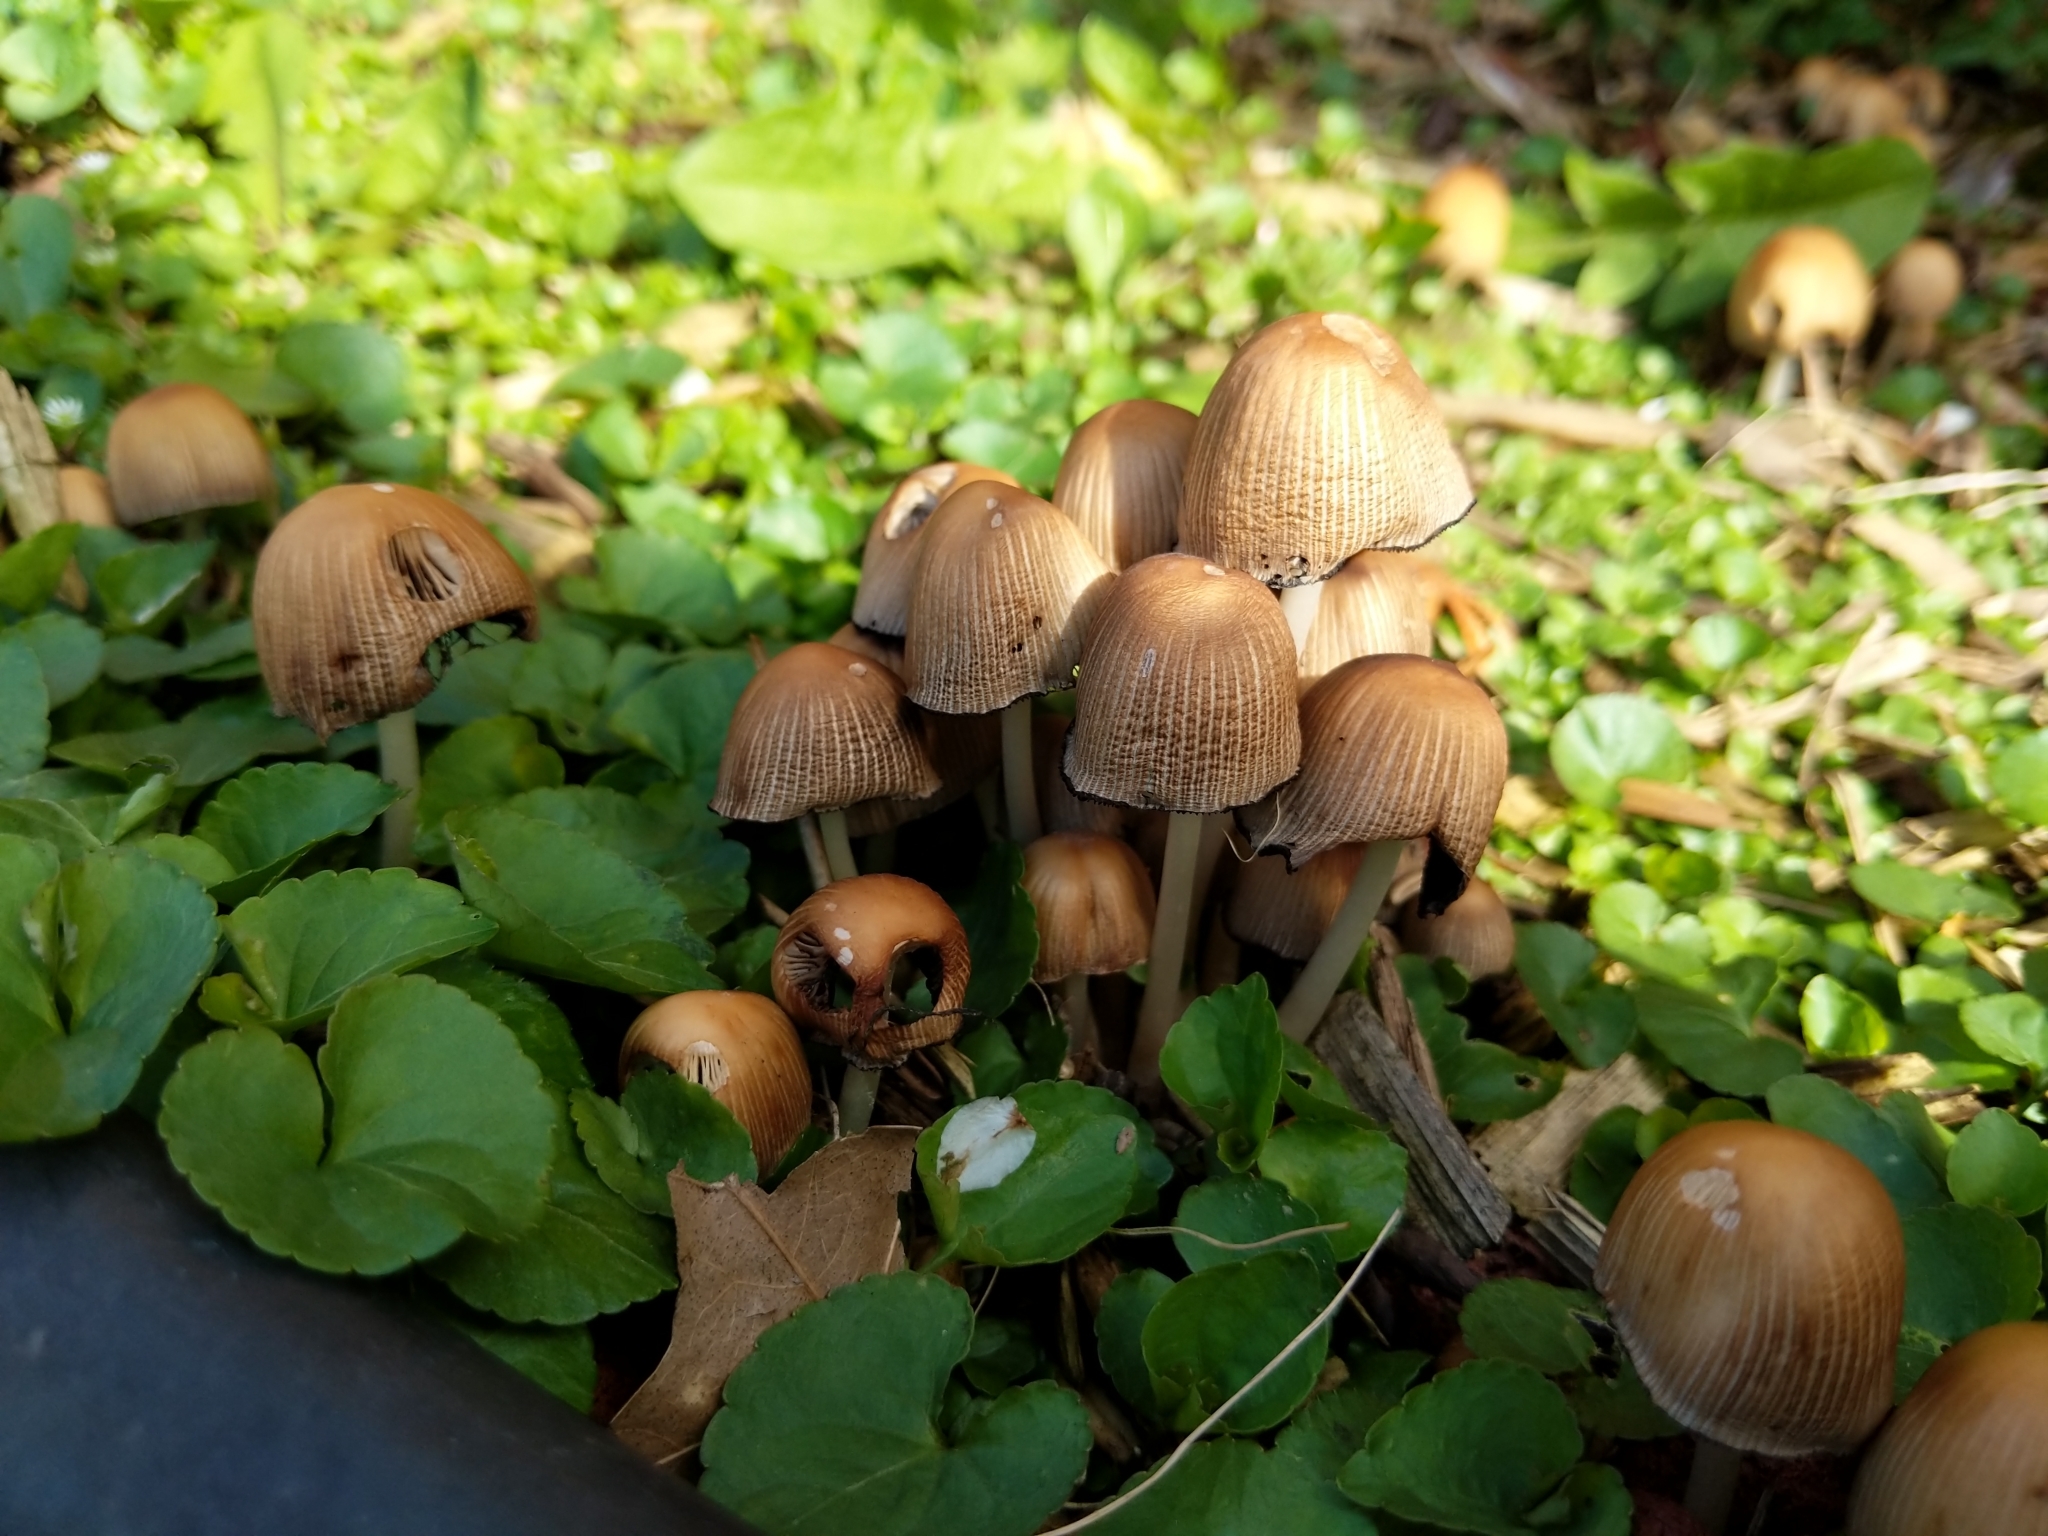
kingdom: Fungi
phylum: Basidiomycota
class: Agaricomycetes
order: Agaricales
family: Psathyrellaceae
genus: Coprinellus
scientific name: Coprinellus micaceus
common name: Glistening ink-cap
